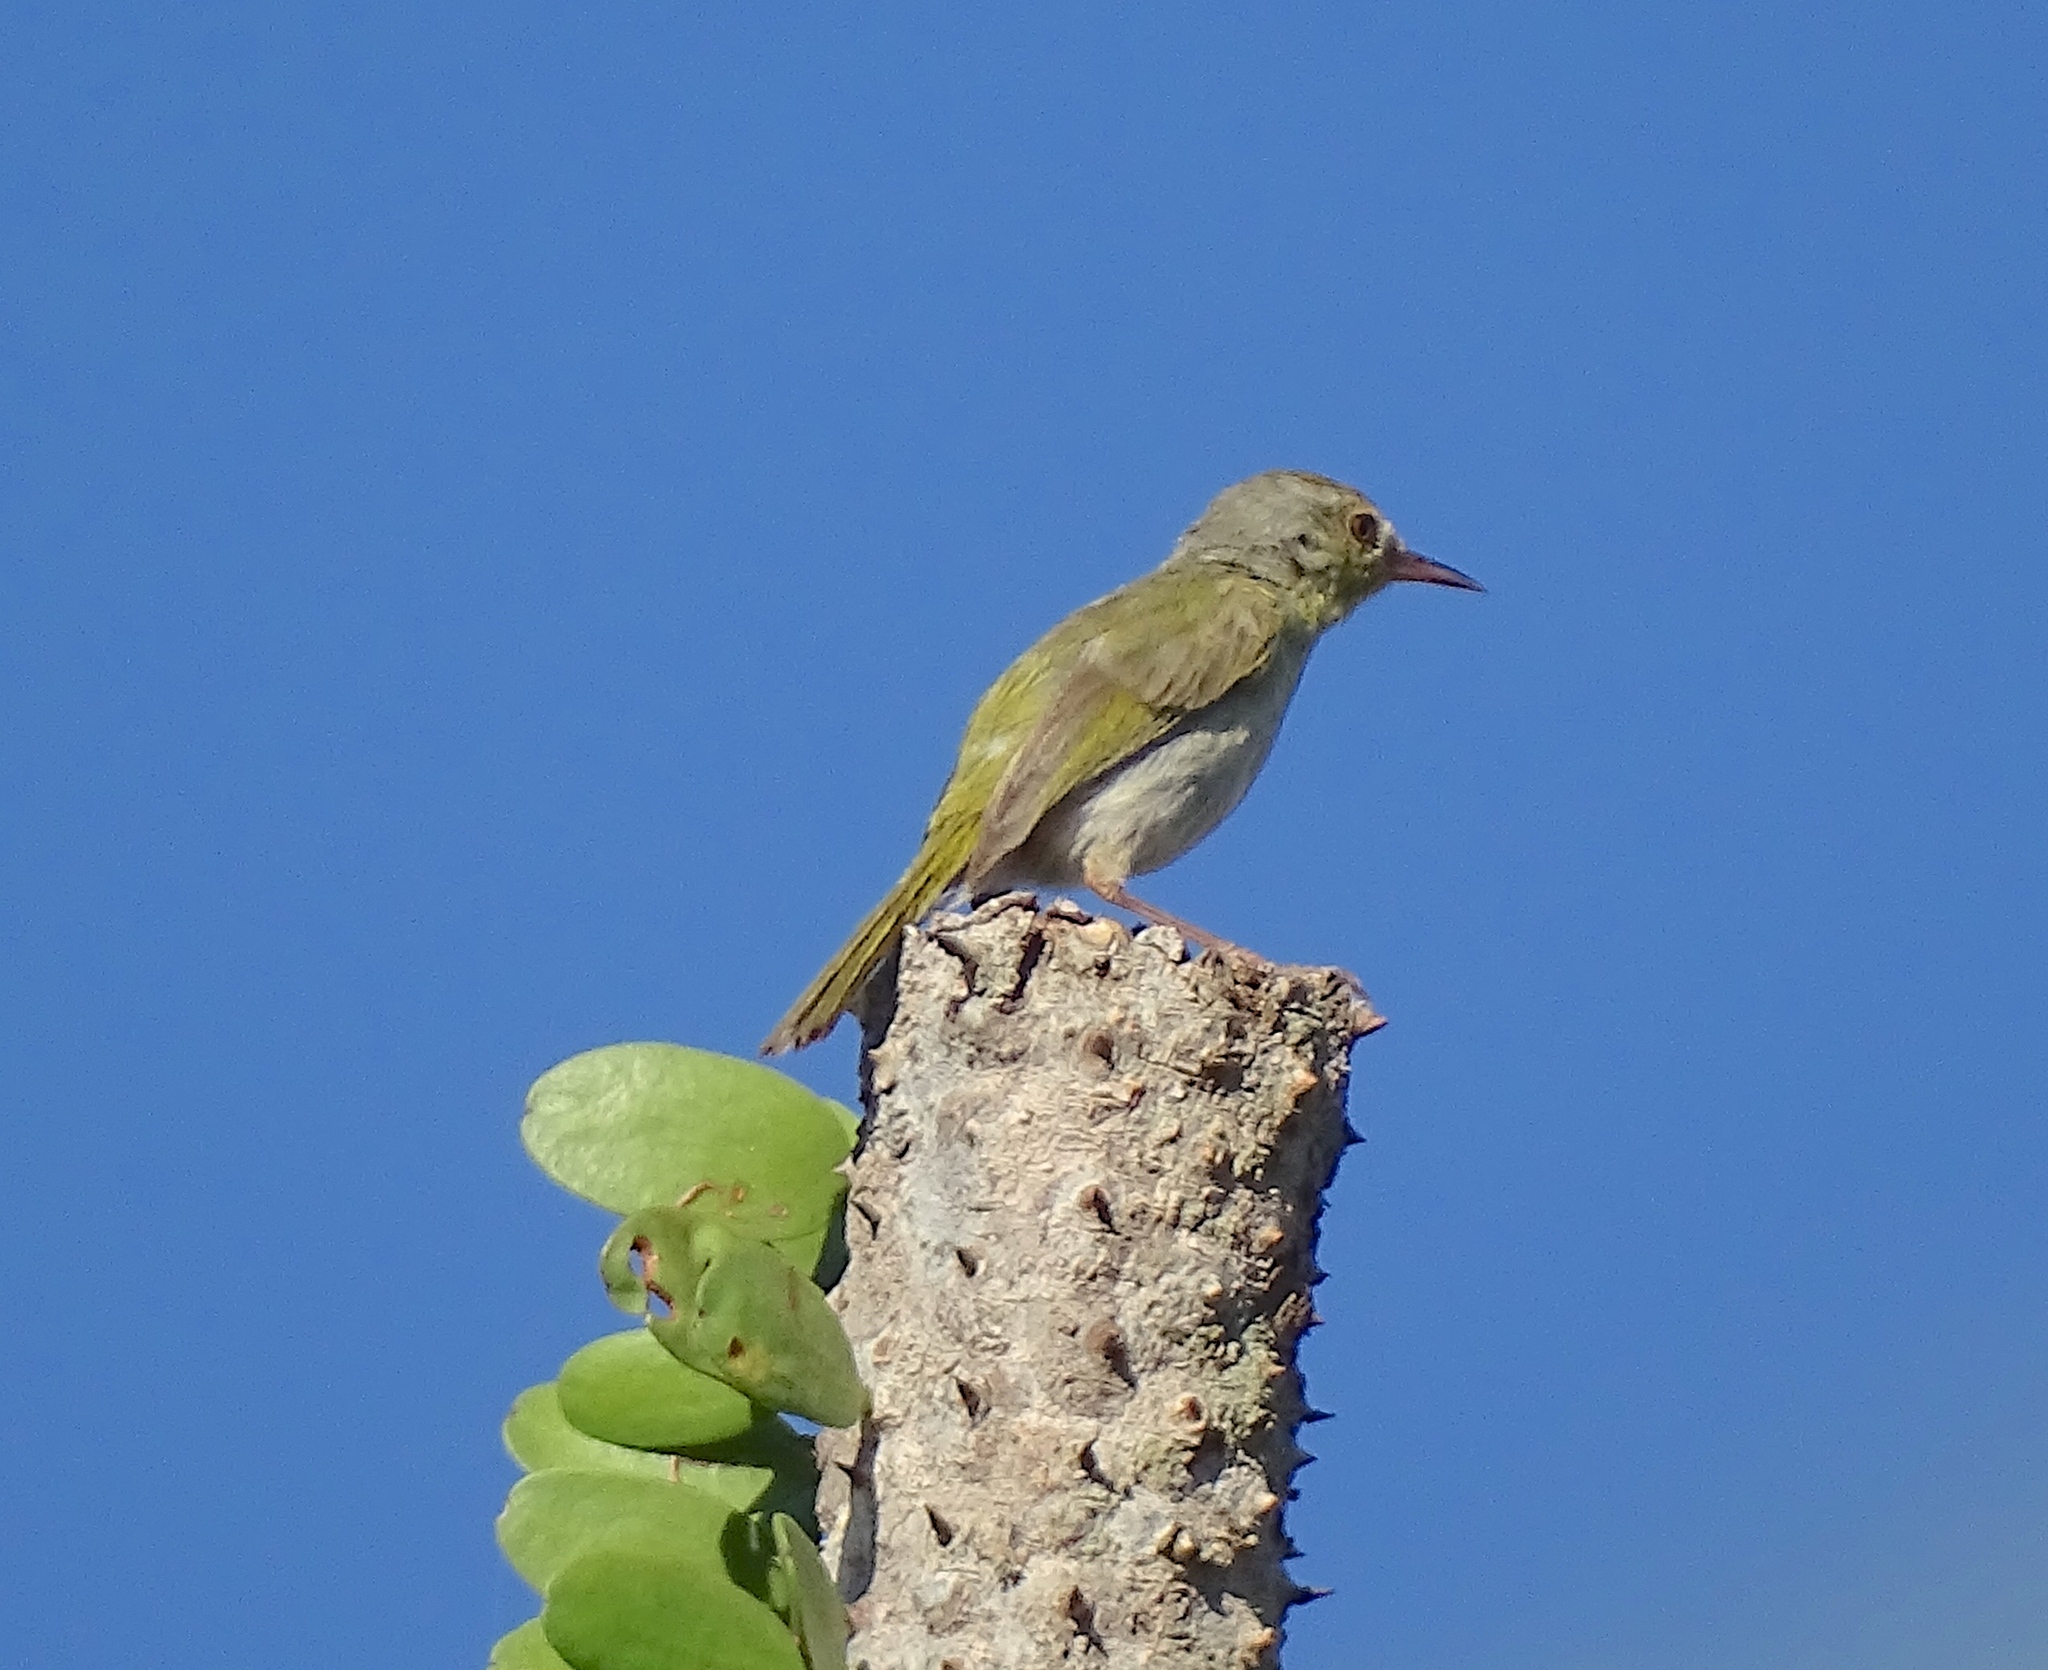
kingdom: Animalia
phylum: Chordata
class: Aves
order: Passeriformes
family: Cisticolidae
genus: Neomixis
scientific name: Neomixis tenella
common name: Common jery
